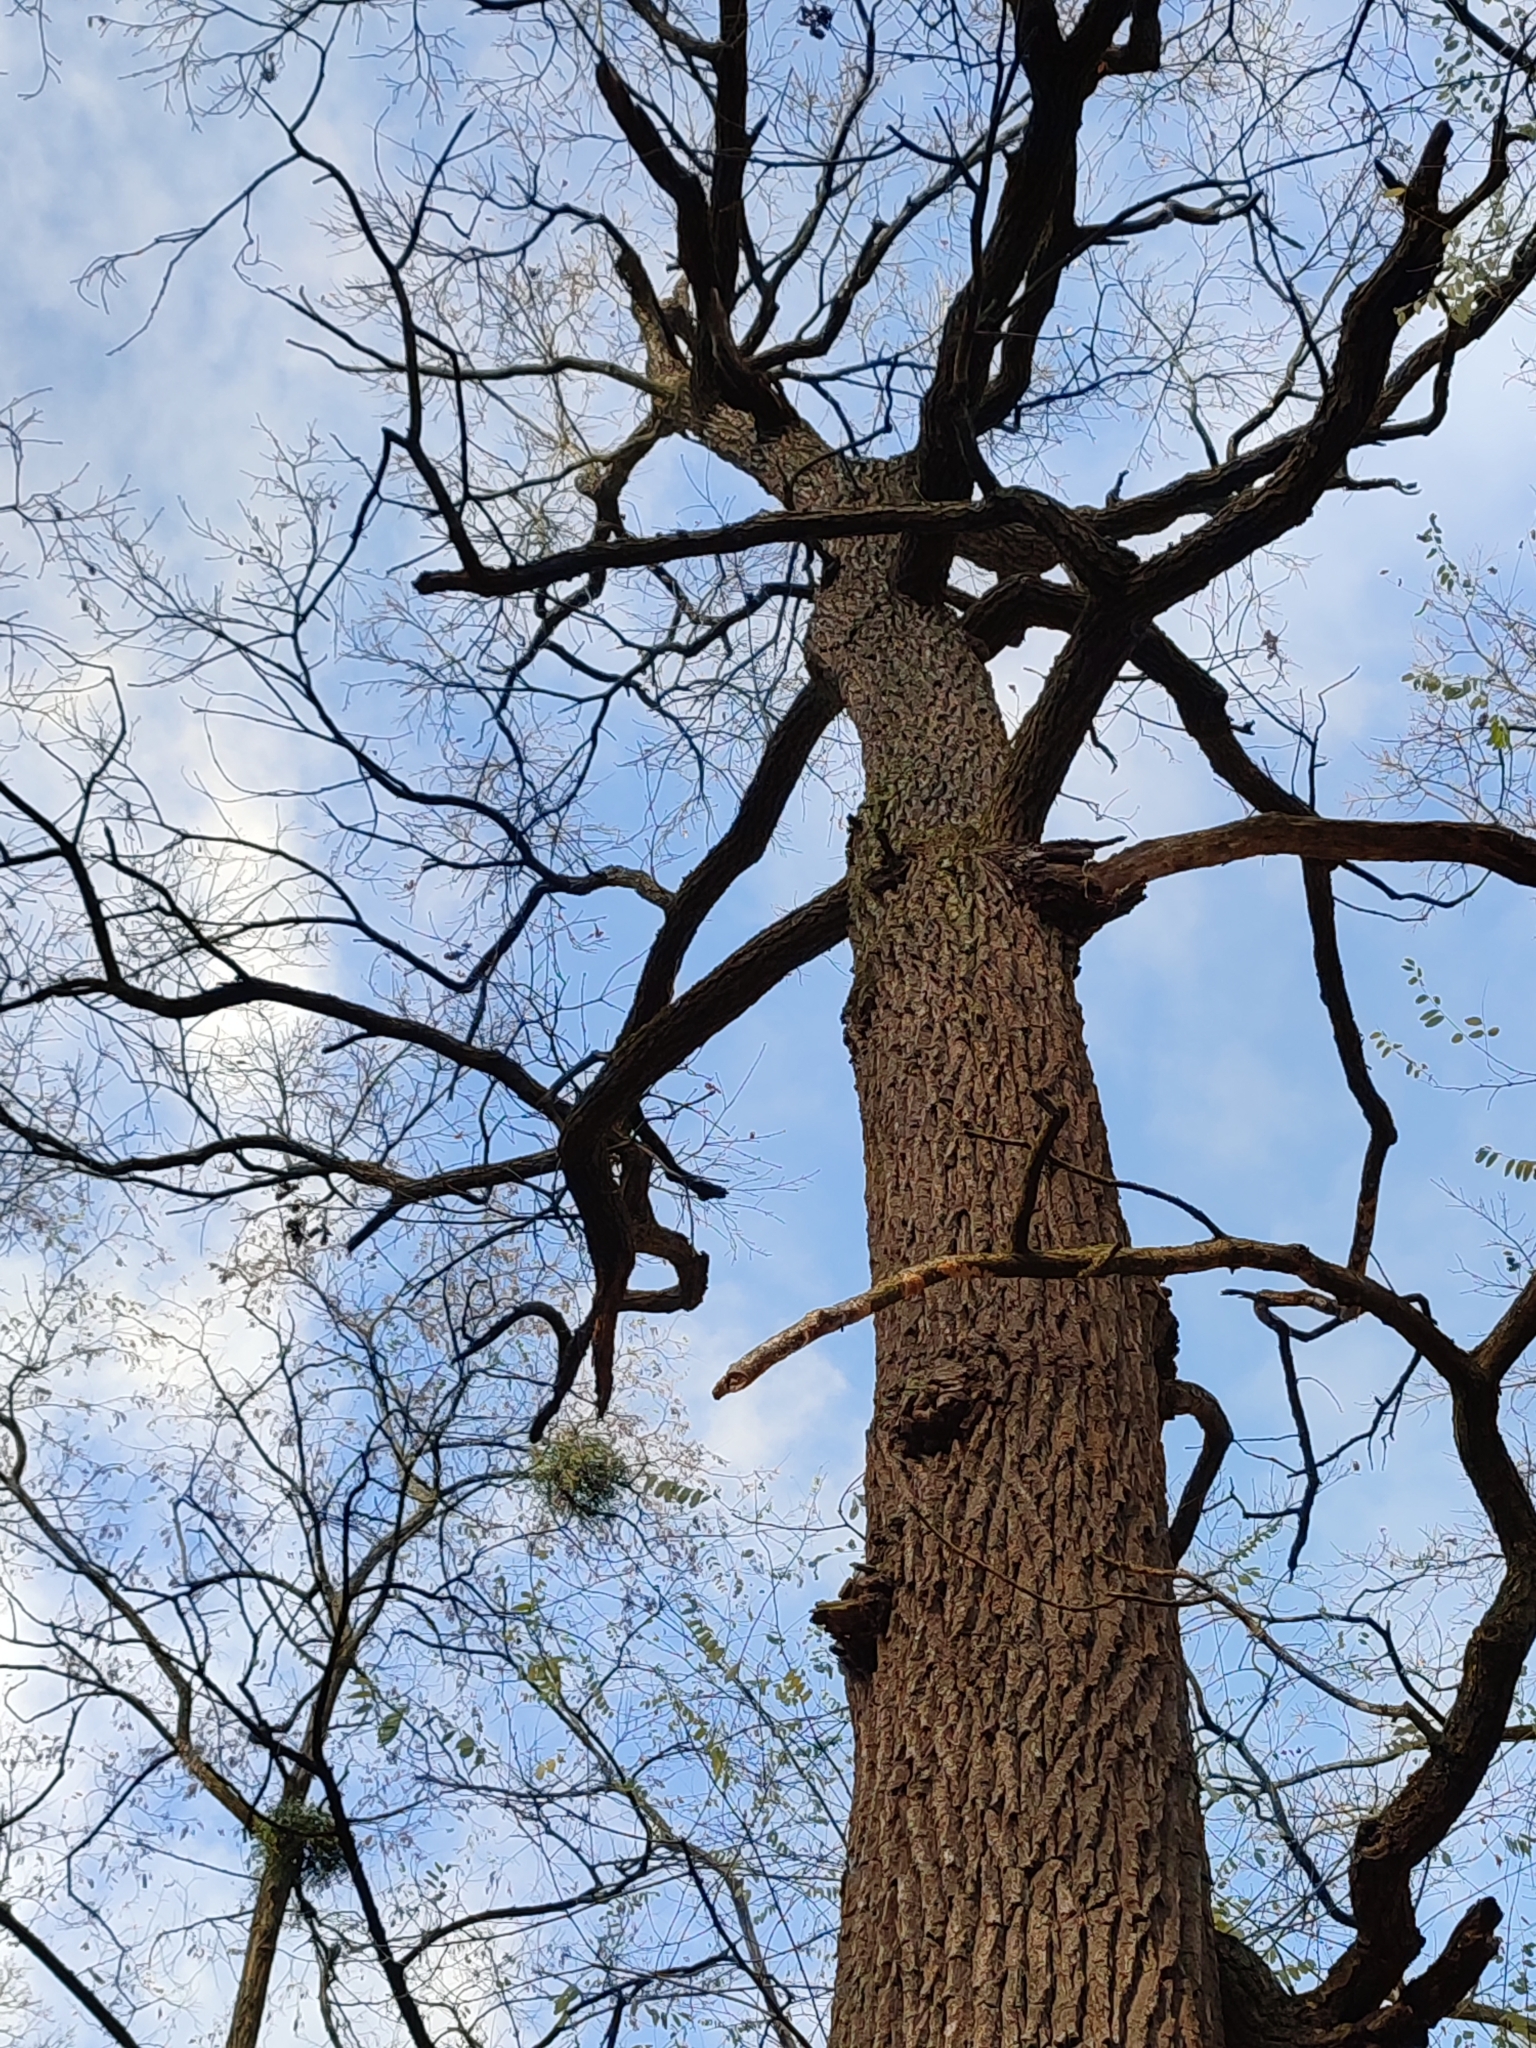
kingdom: Plantae
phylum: Tracheophyta
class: Magnoliopsida
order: Fagales
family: Fagaceae
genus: Quercus
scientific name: Quercus robur
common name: Pedunculate oak
